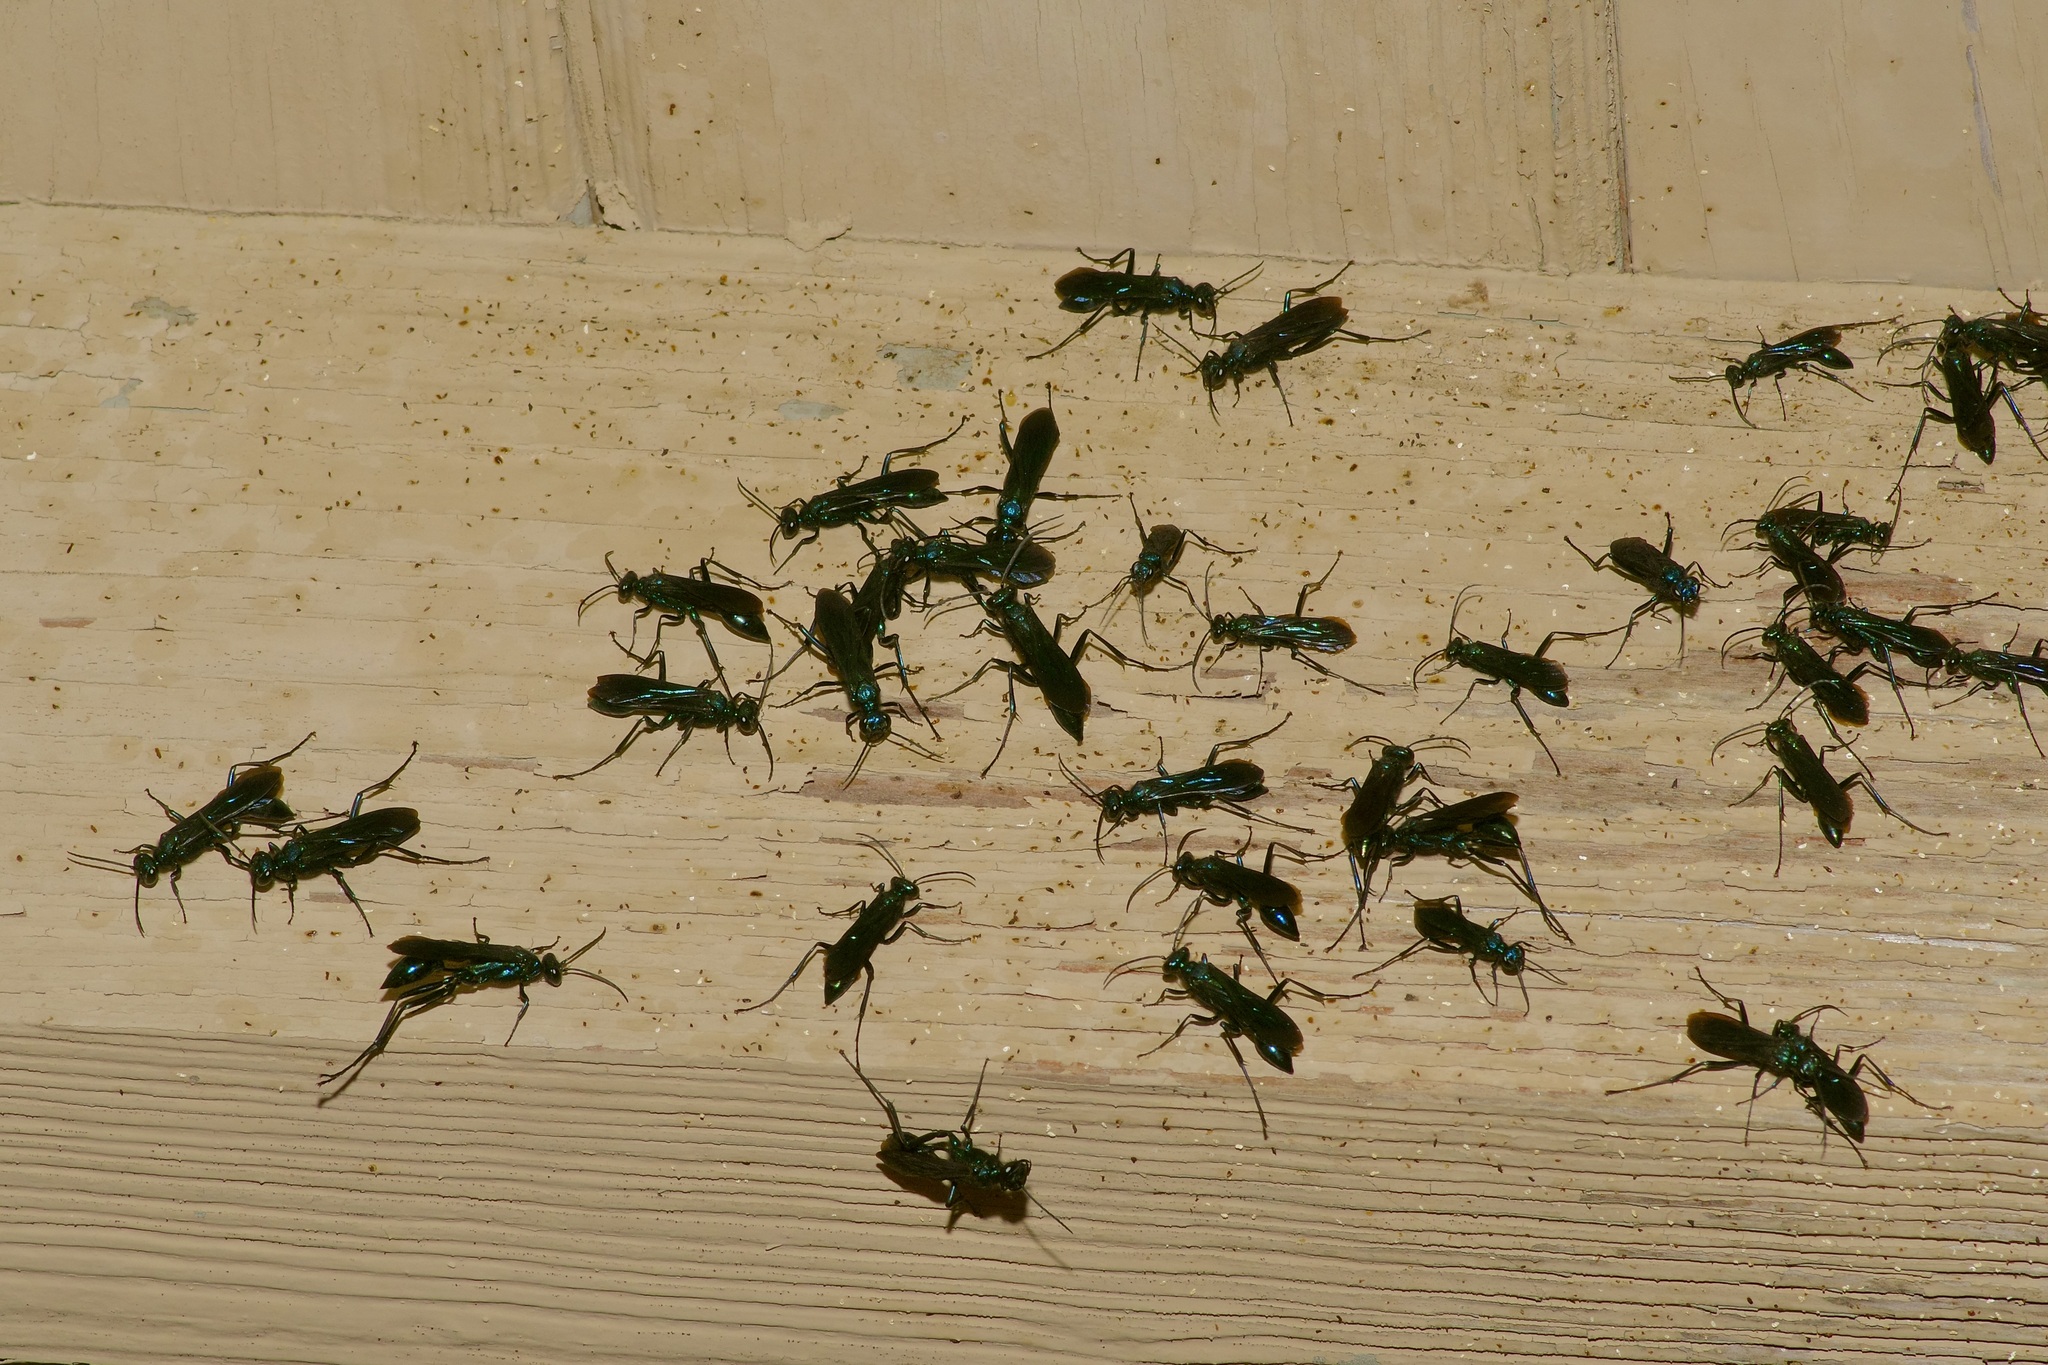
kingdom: Animalia
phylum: Arthropoda
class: Insecta
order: Hymenoptera
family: Sphecidae
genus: Chalybion
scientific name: Chalybion californicum
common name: Mud dauber
